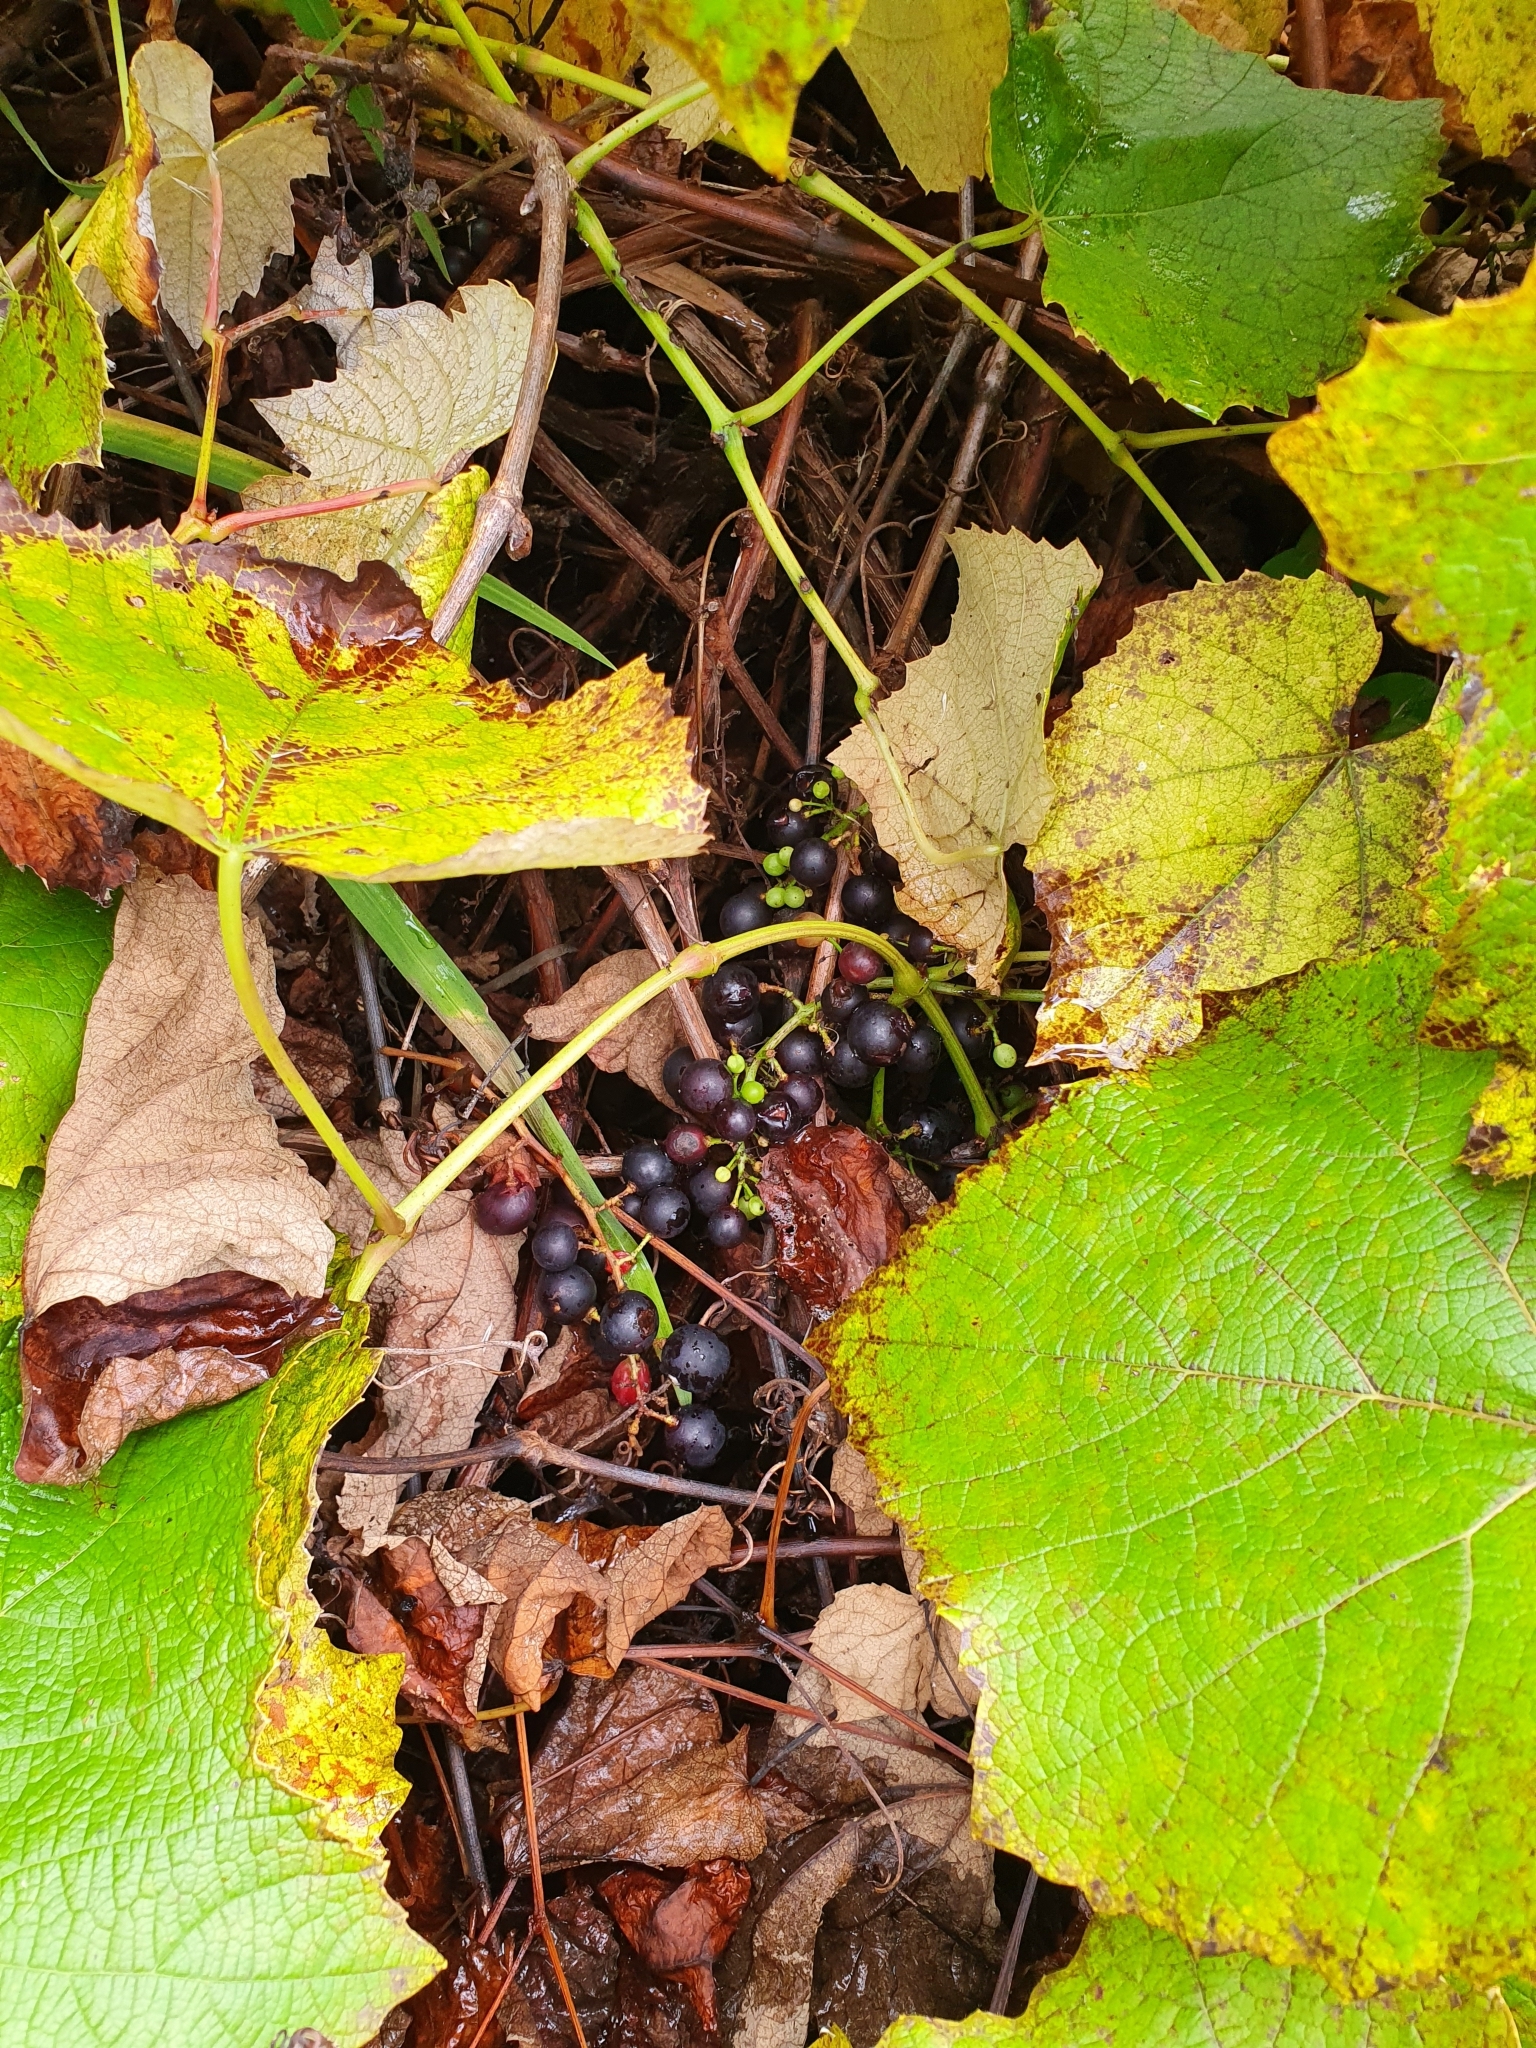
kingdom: Plantae
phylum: Tracheophyta
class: Magnoliopsida
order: Vitales
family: Vitaceae
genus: Vitis
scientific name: Vitis vinifera
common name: Grape-vine
